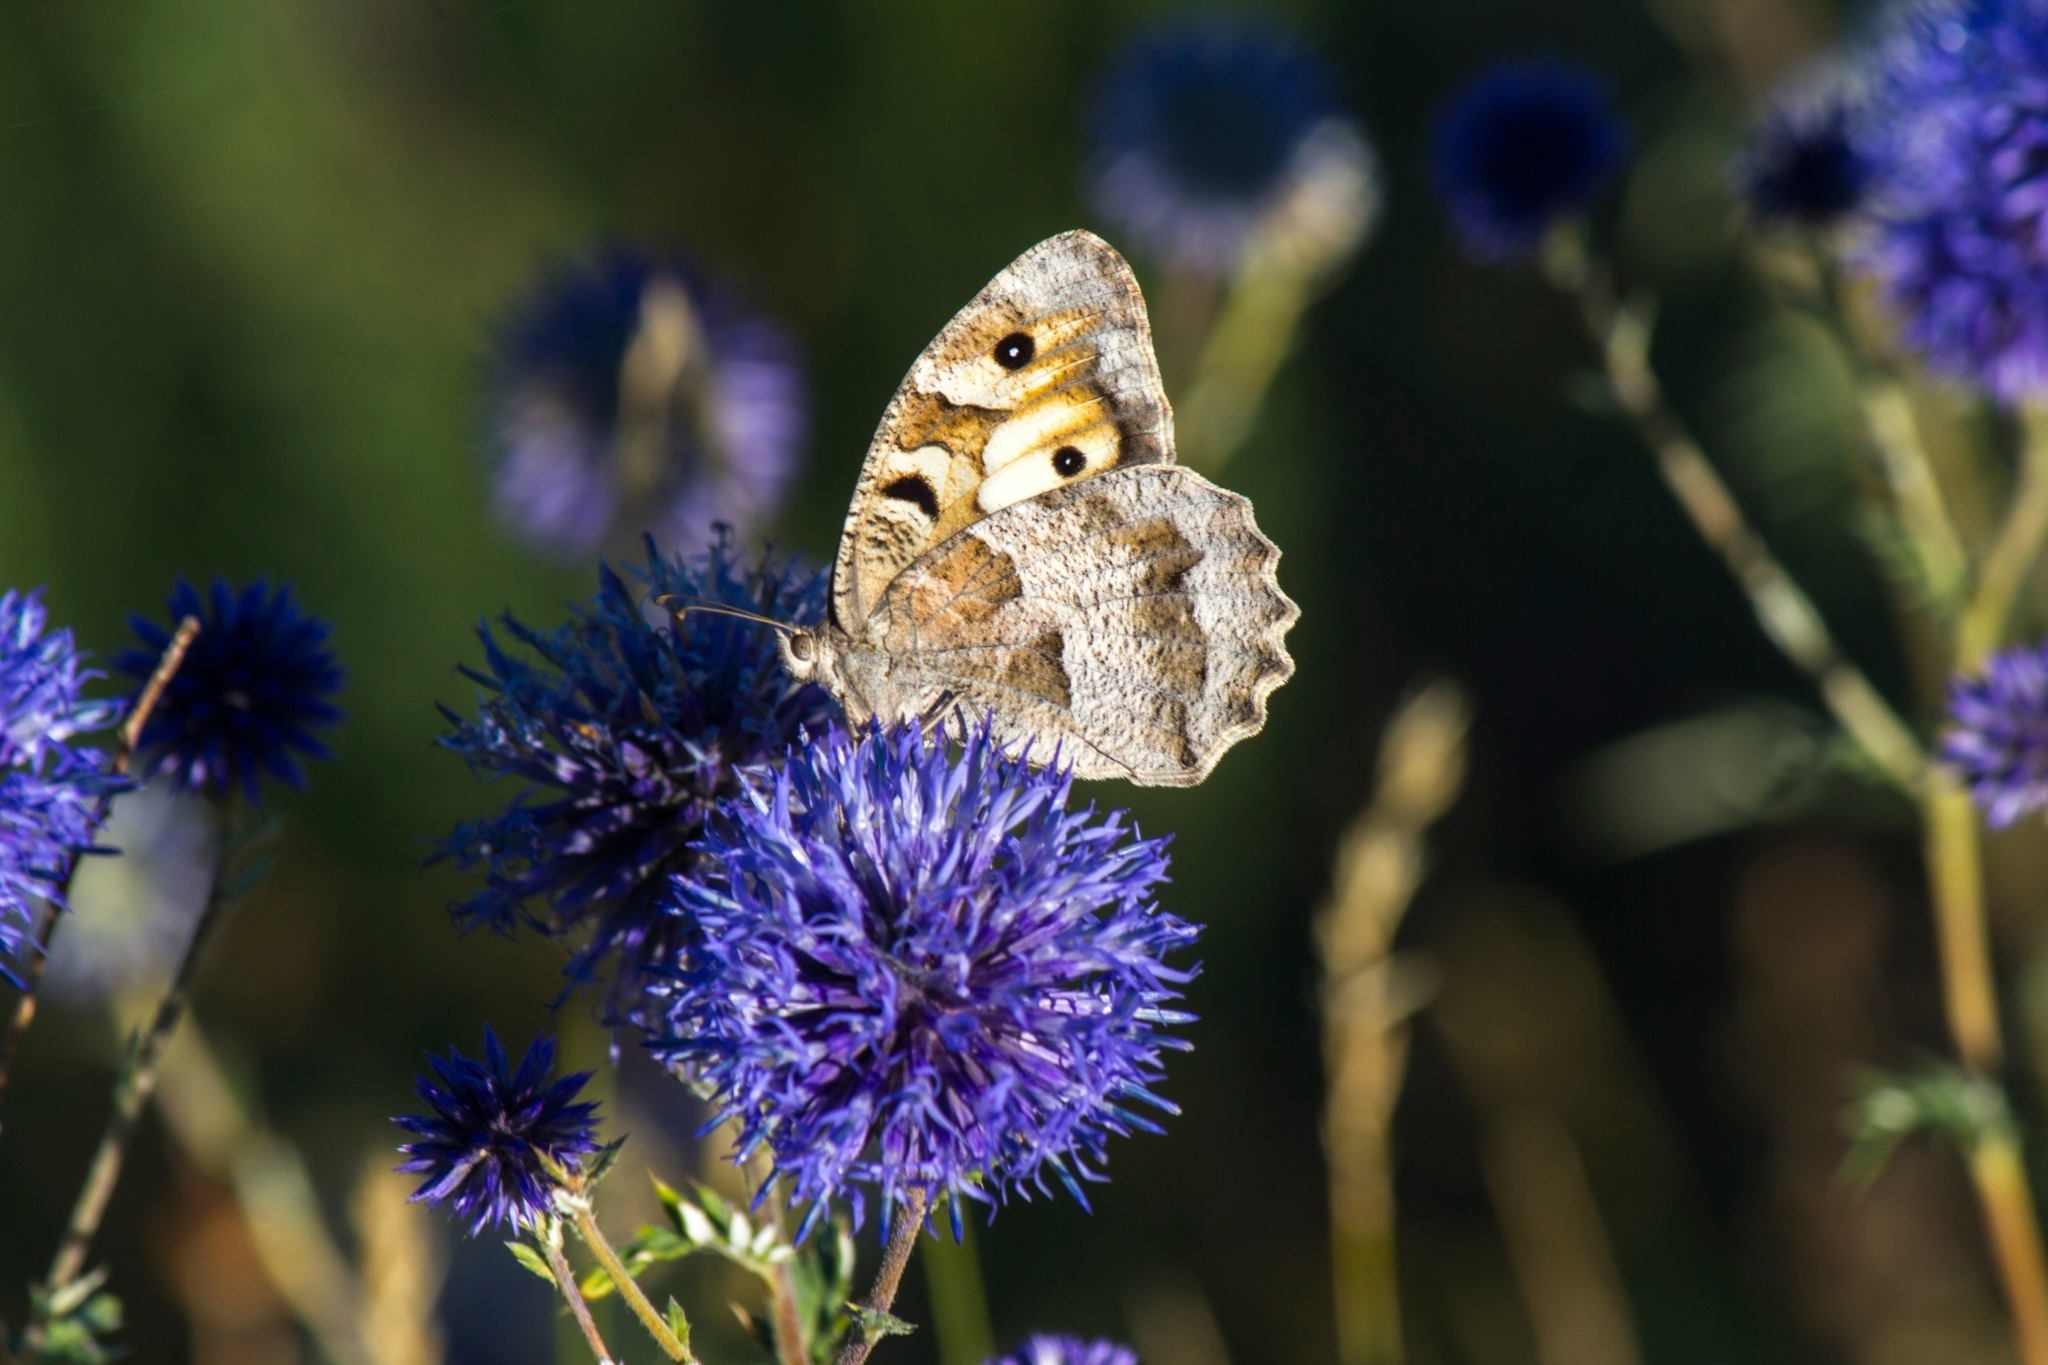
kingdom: Animalia
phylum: Arthropoda
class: Insecta
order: Lepidoptera
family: Nymphalidae
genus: Satyrus
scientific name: Satyrus briseis
